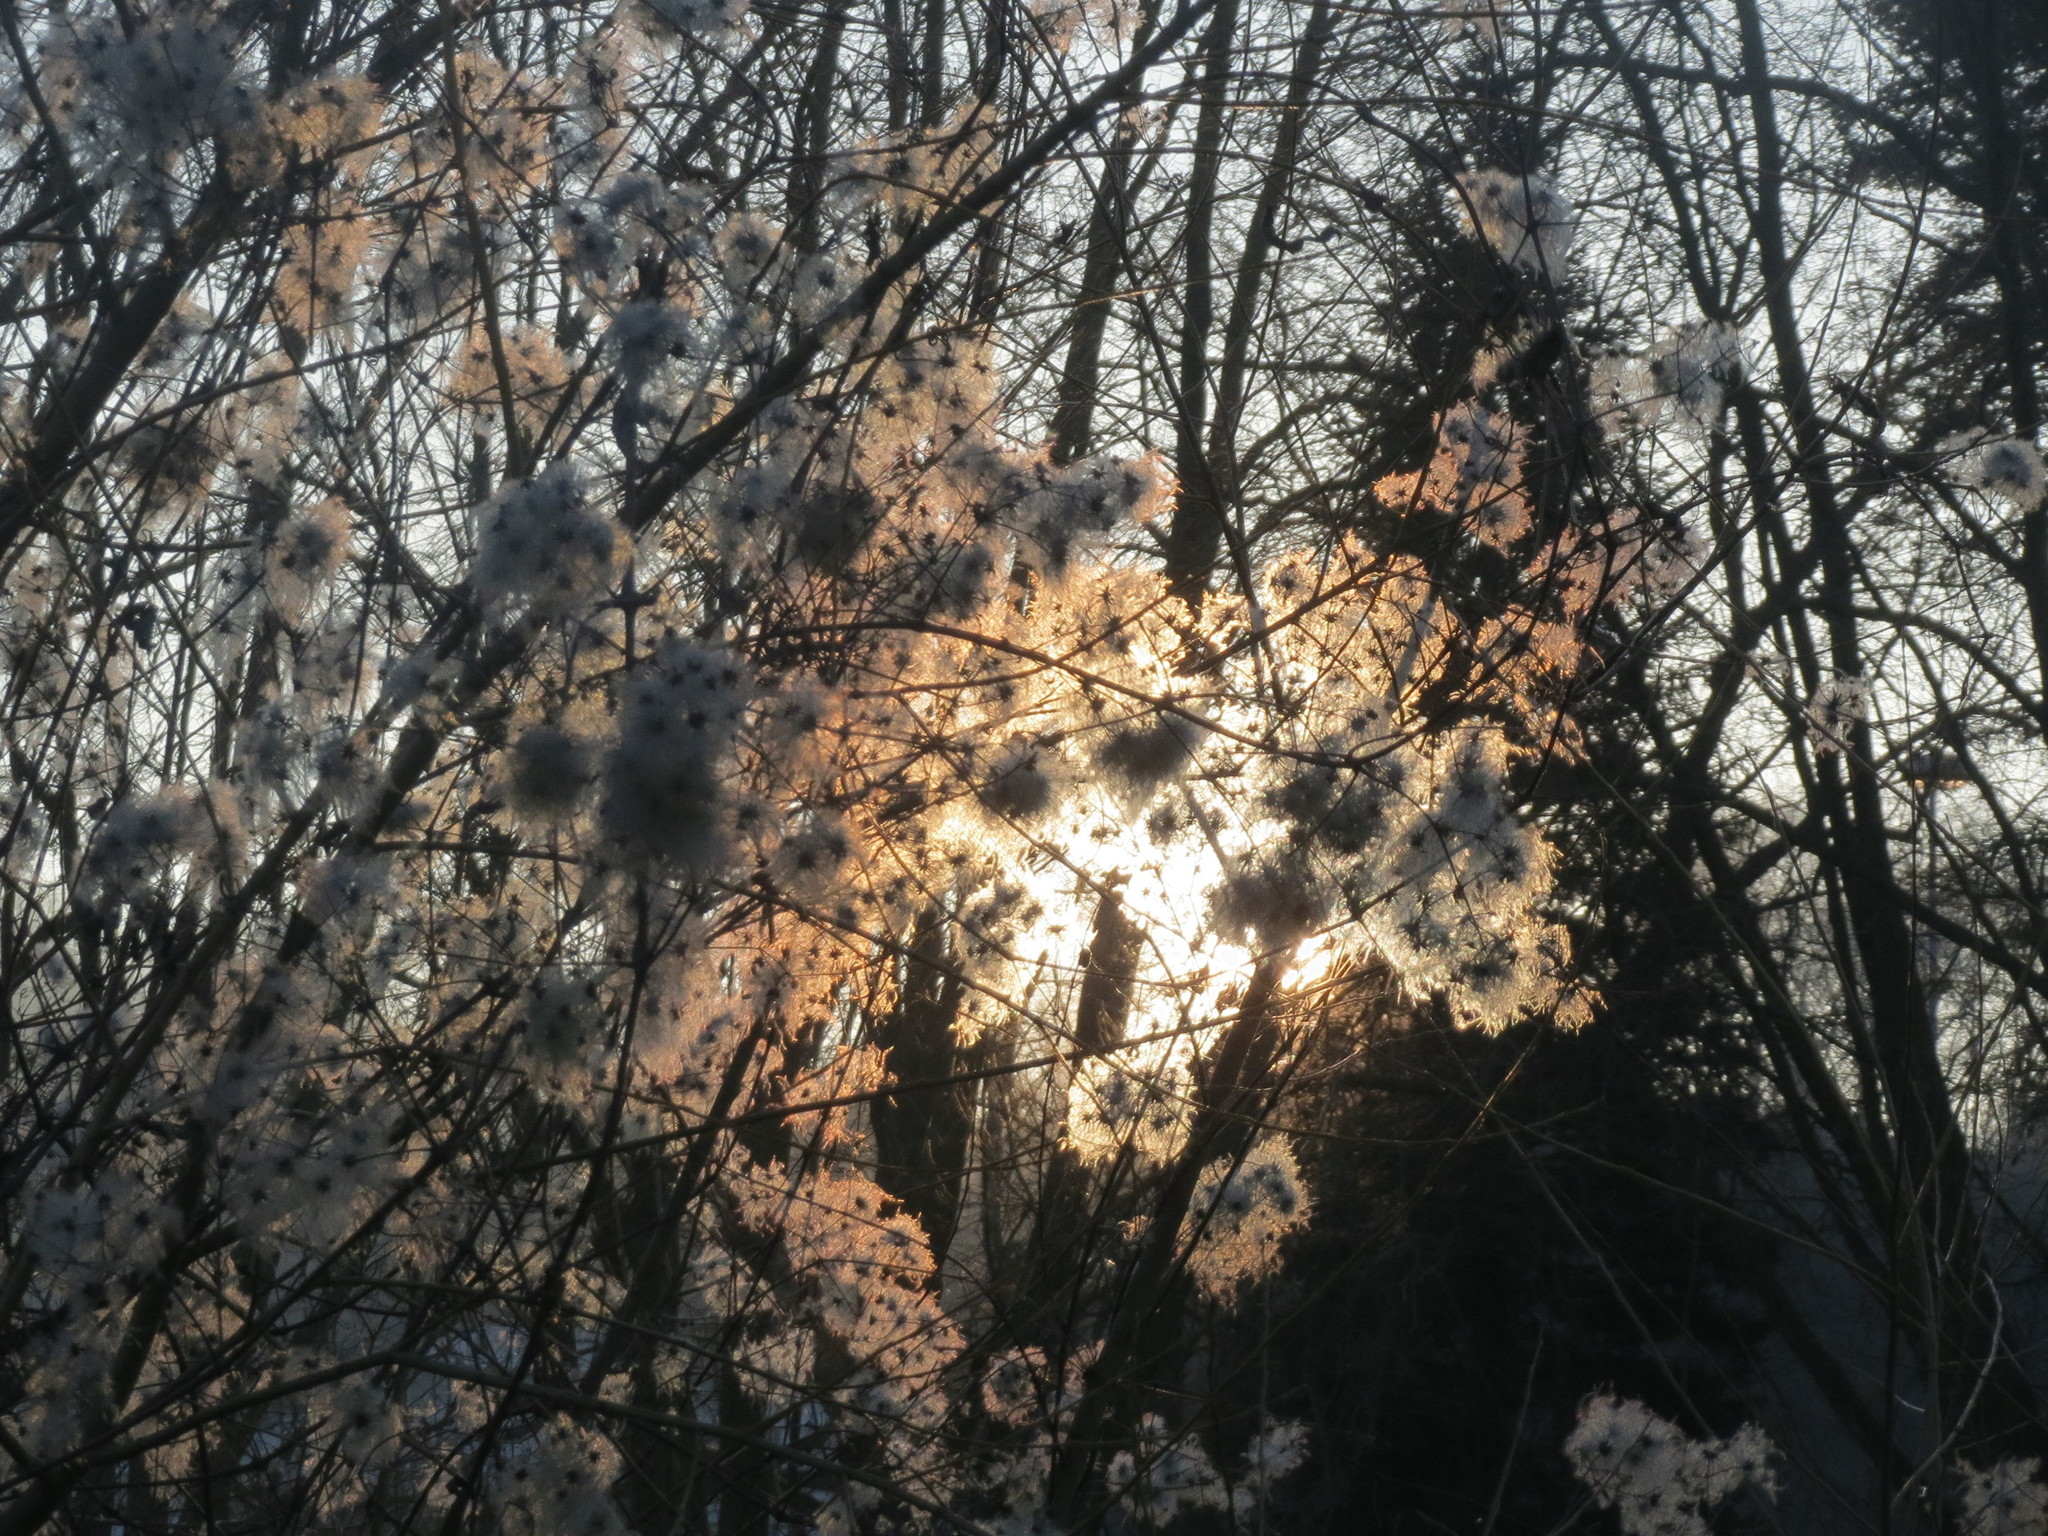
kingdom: Plantae
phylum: Tracheophyta
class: Magnoliopsida
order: Ranunculales
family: Ranunculaceae
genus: Clematis
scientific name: Clematis vitalba
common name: Evergreen clematis
